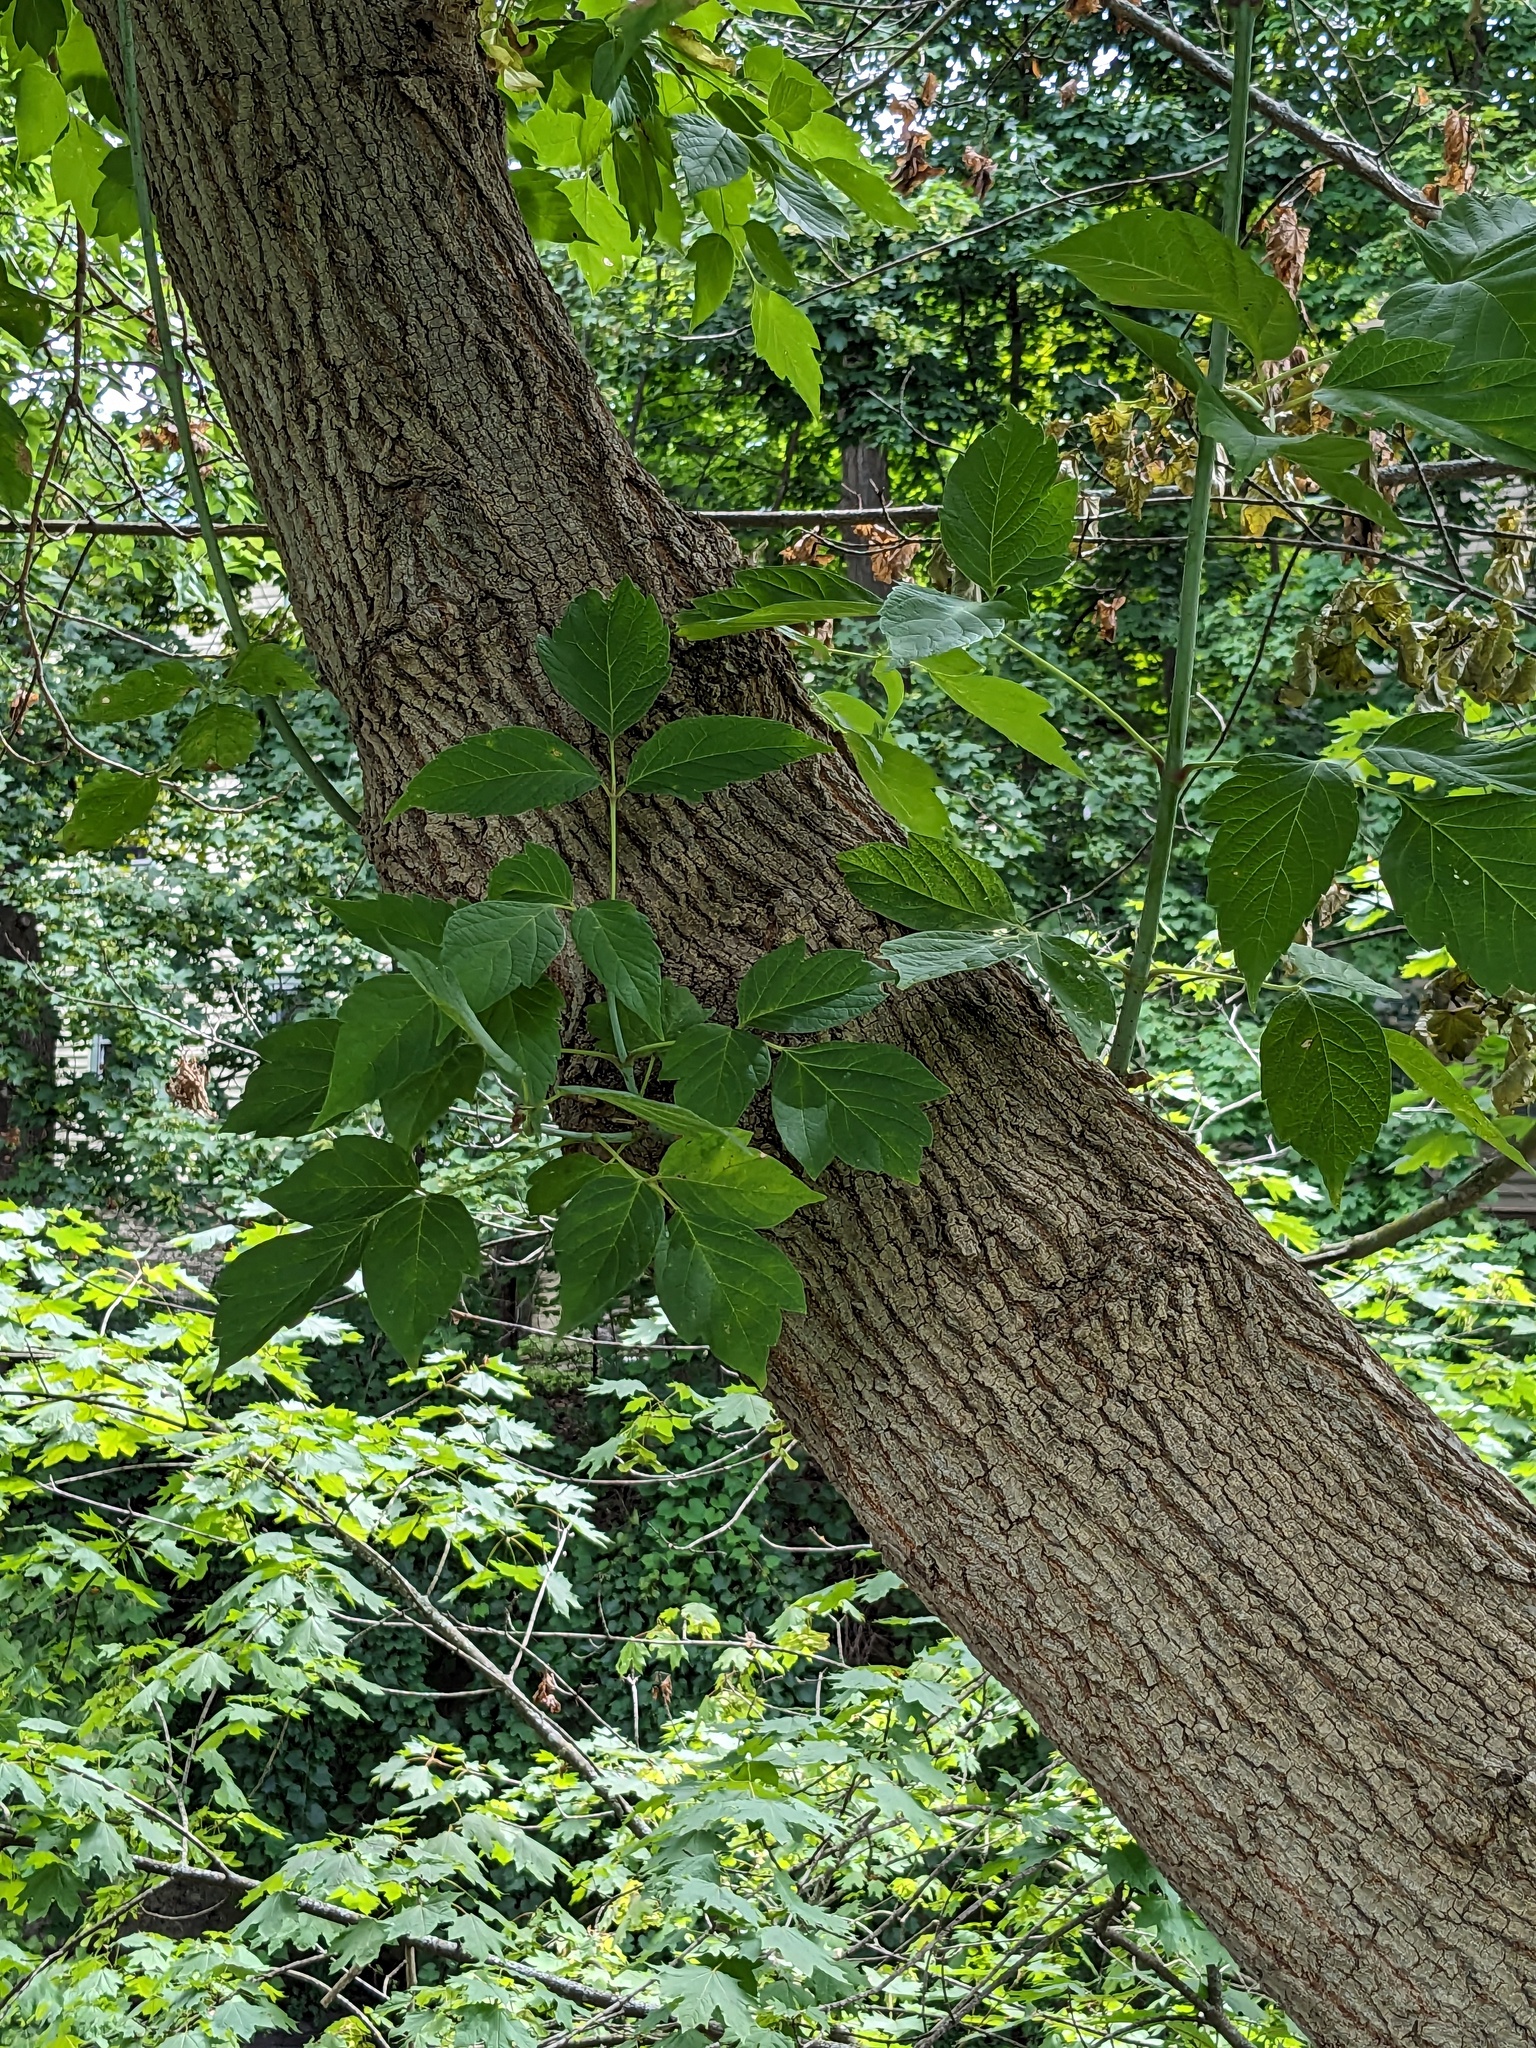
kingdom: Plantae
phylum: Tracheophyta
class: Magnoliopsida
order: Sapindales
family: Sapindaceae
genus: Acer
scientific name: Acer negundo
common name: Ashleaf maple
